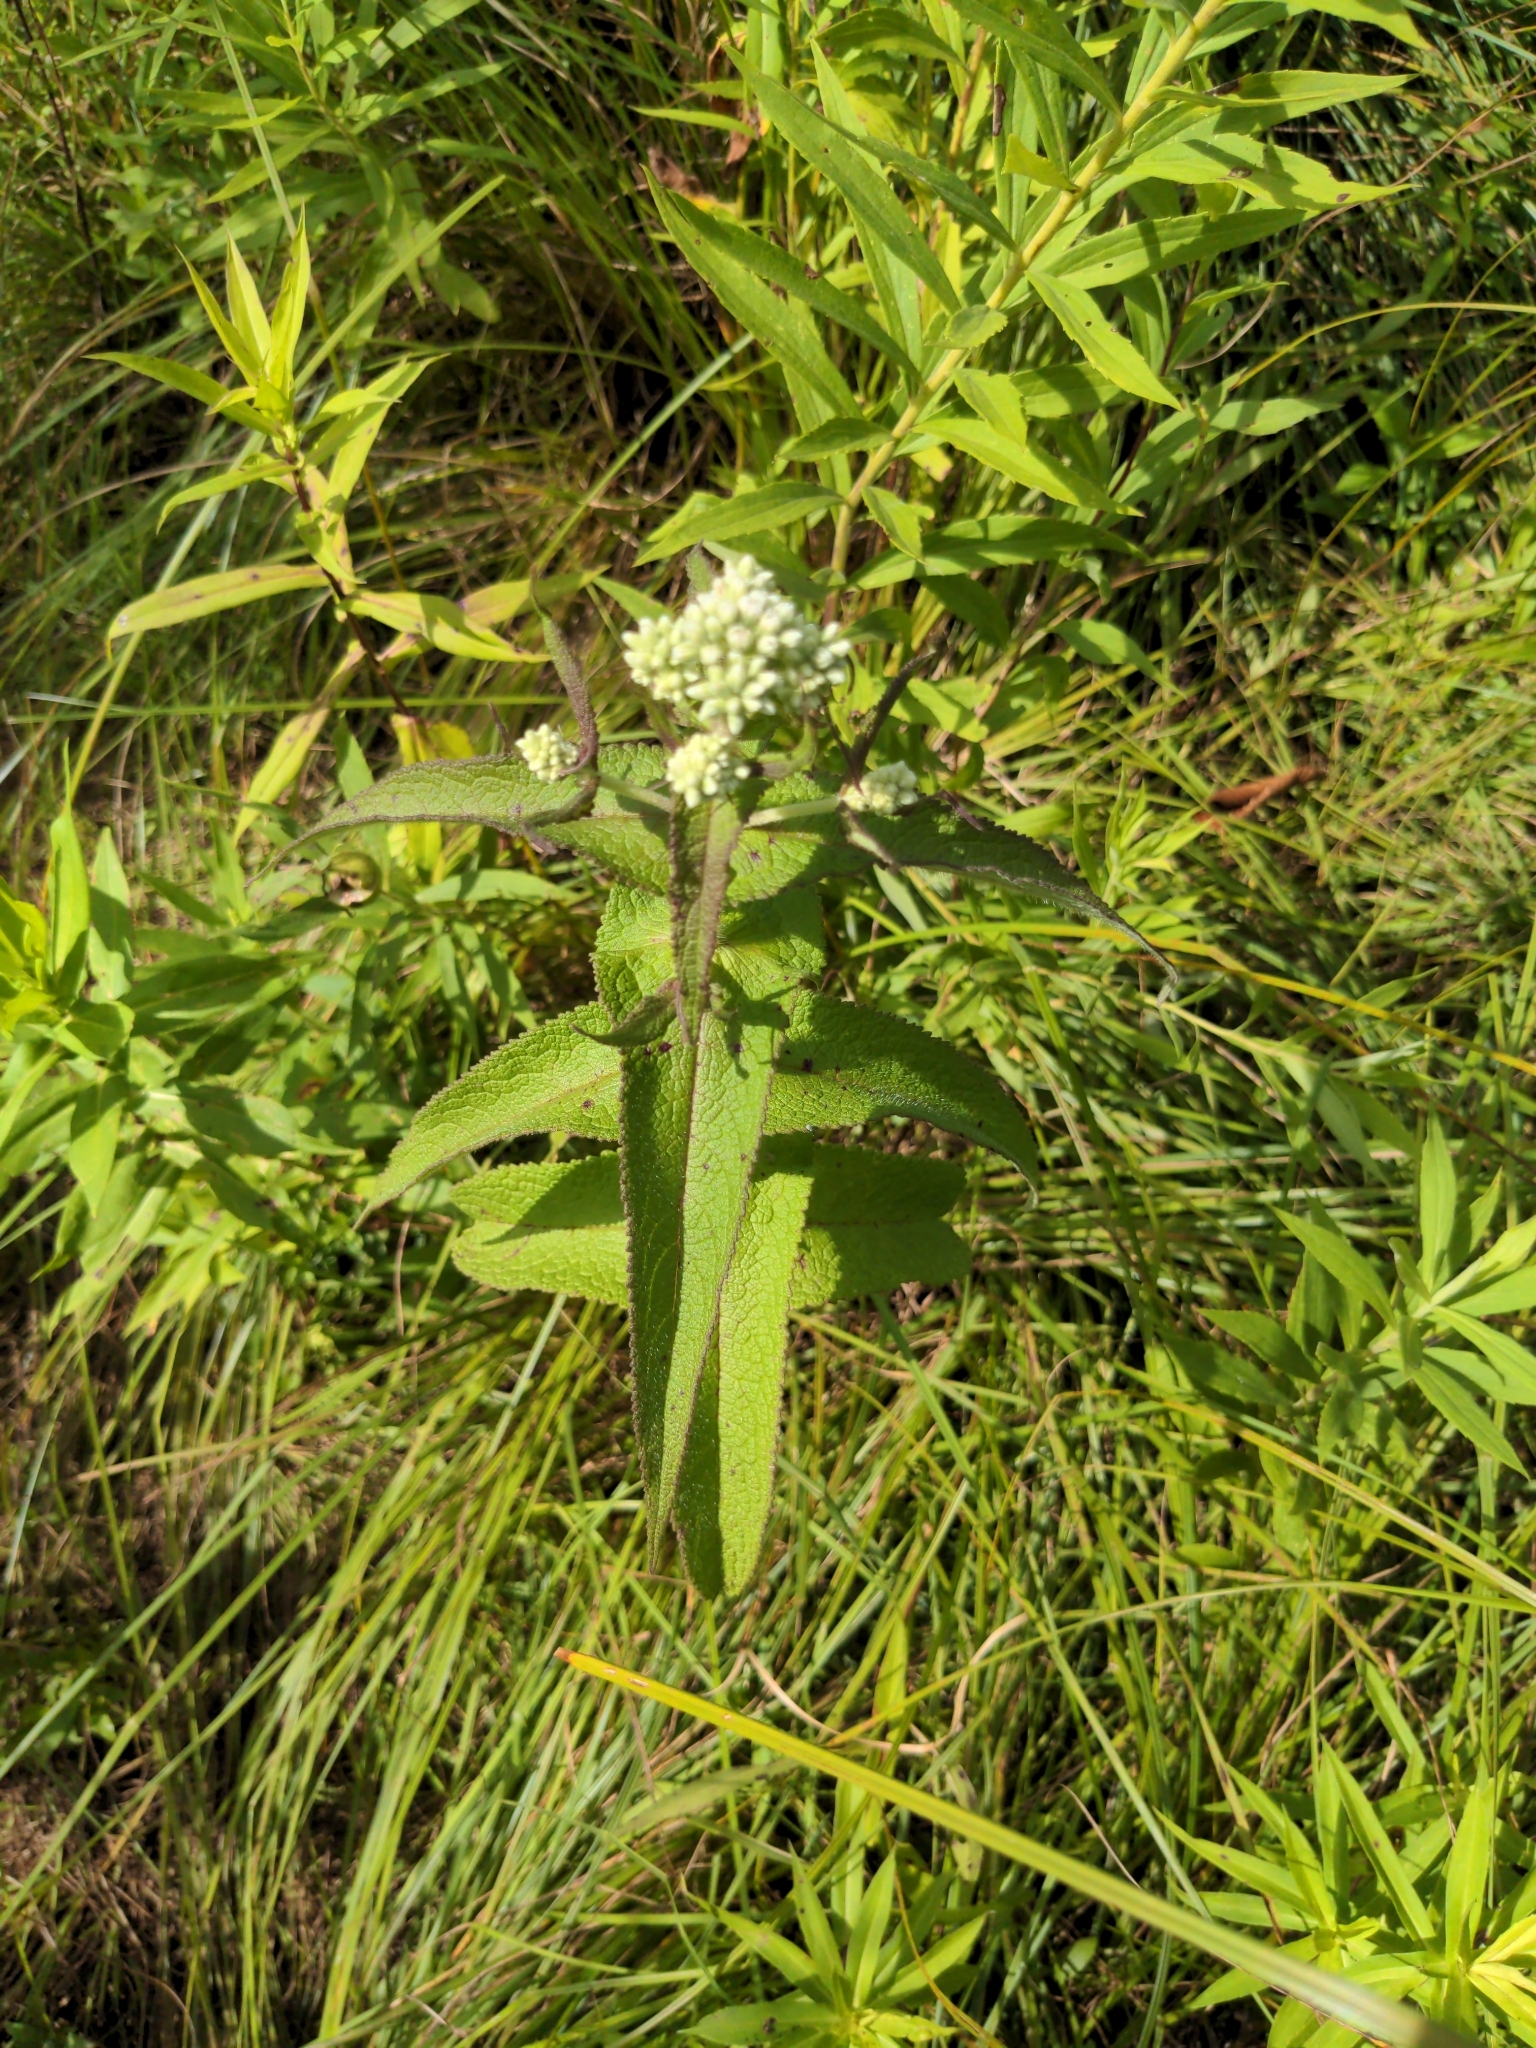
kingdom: Plantae
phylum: Tracheophyta
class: Magnoliopsida
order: Asterales
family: Asteraceae
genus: Eupatorium
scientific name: Eupatorium perfoliatum
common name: Boneset
